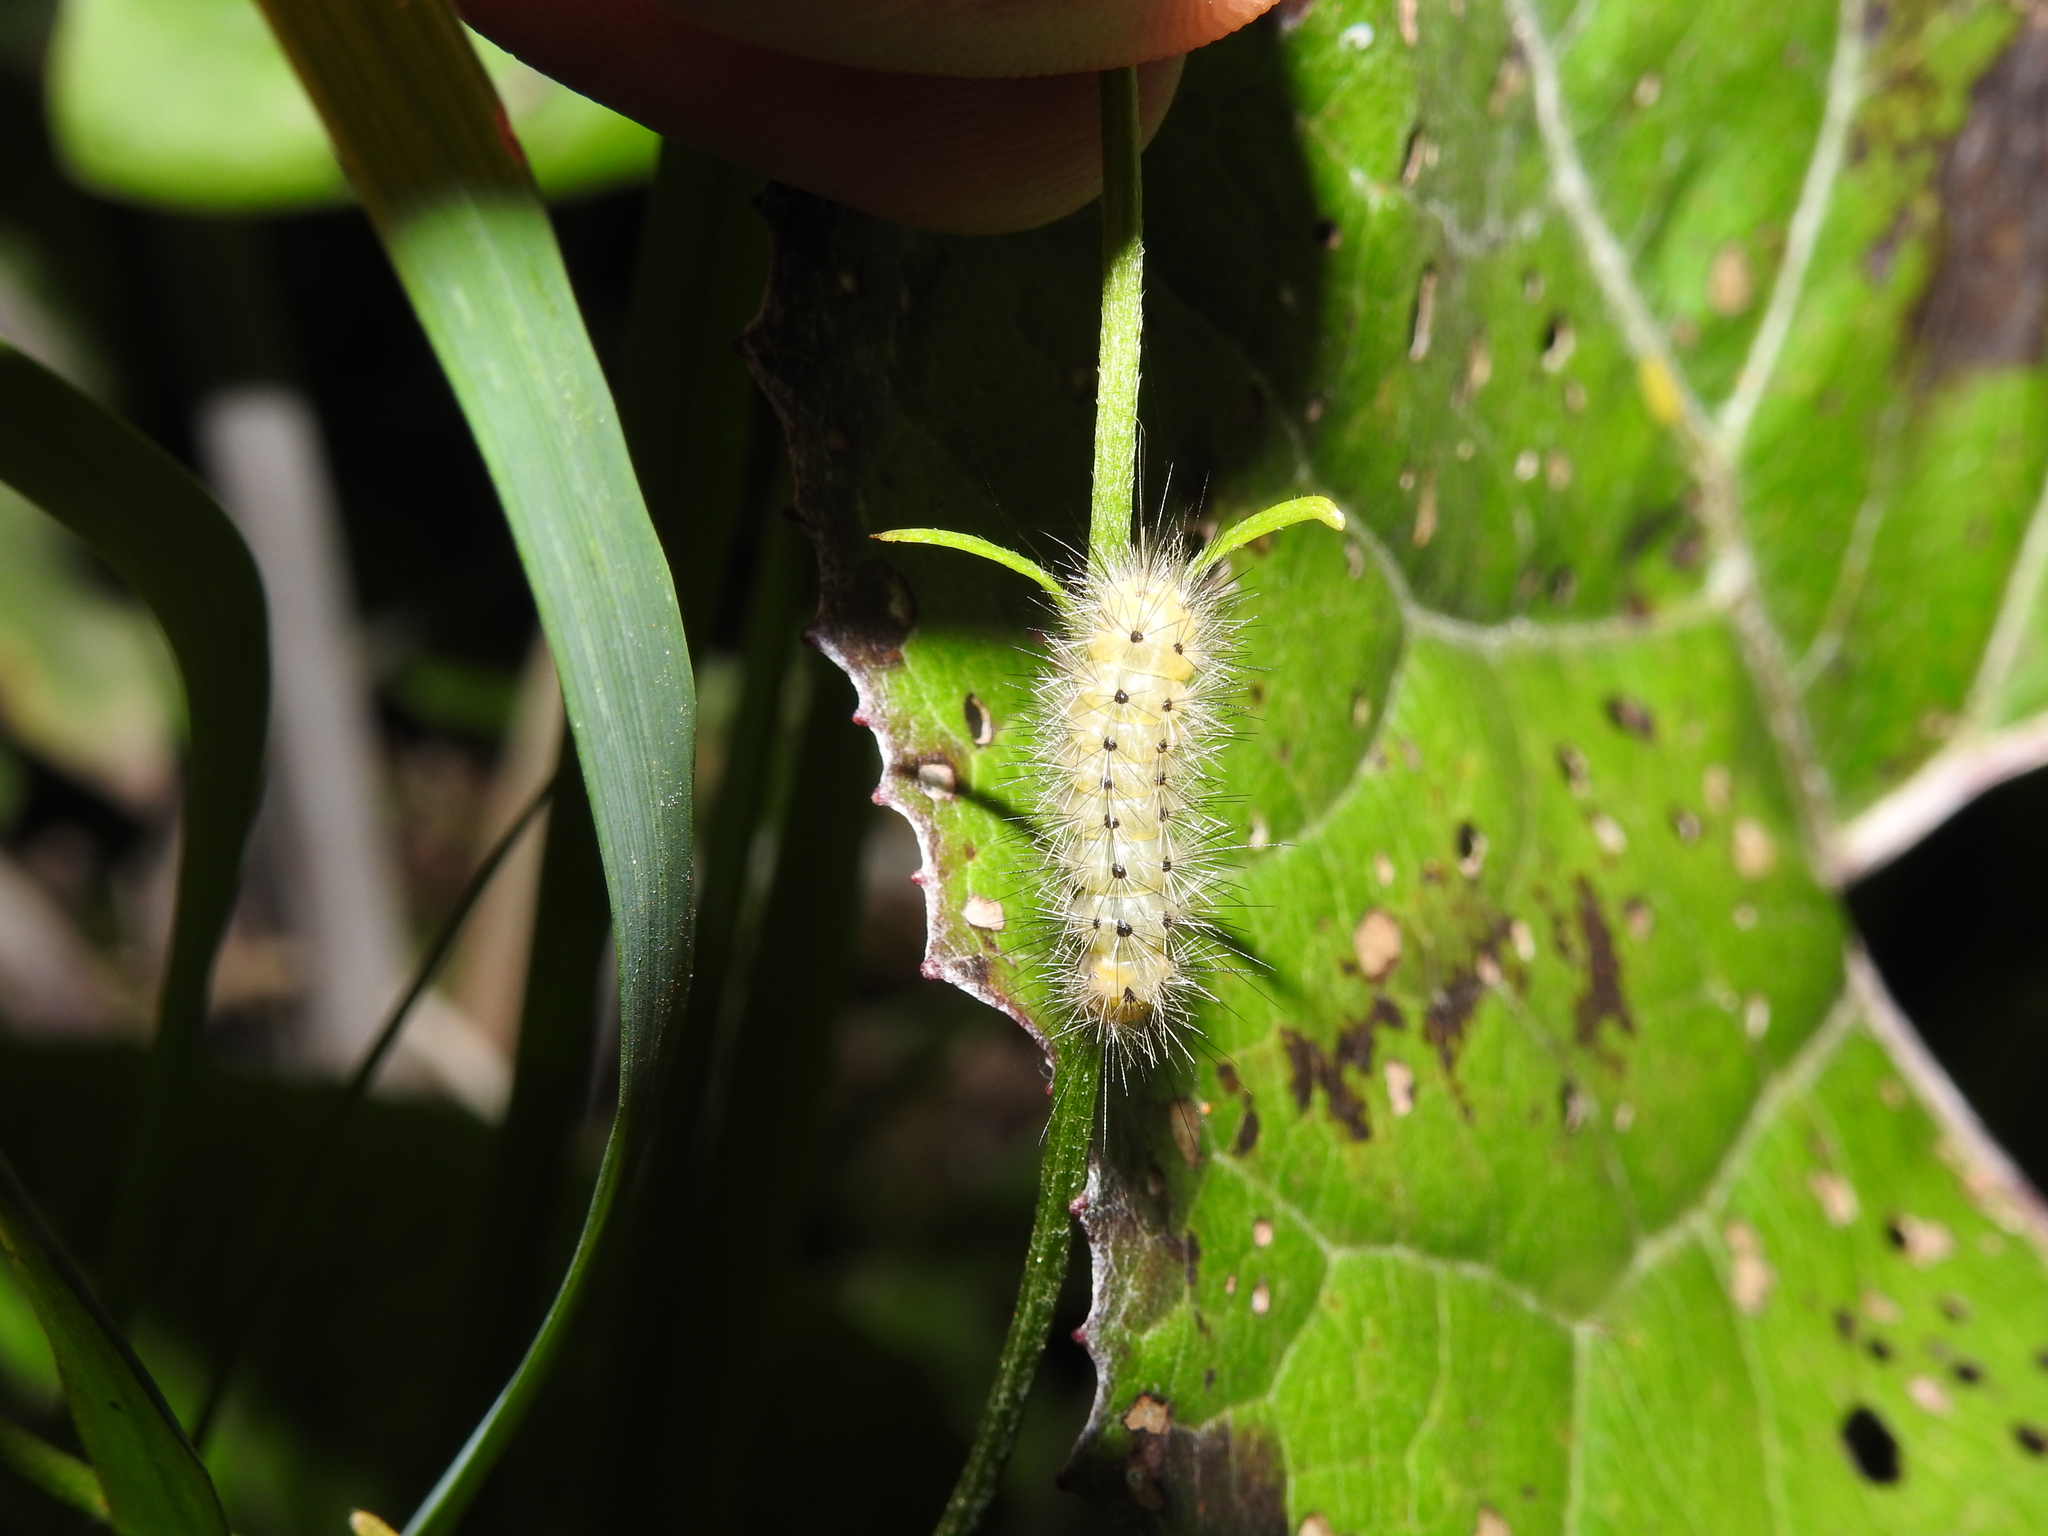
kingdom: Animalia
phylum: Arthropoda
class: Insecta
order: Lepidoptera
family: Erebidae
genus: Diaphora
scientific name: Diaphora mendica
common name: Muslin moth
